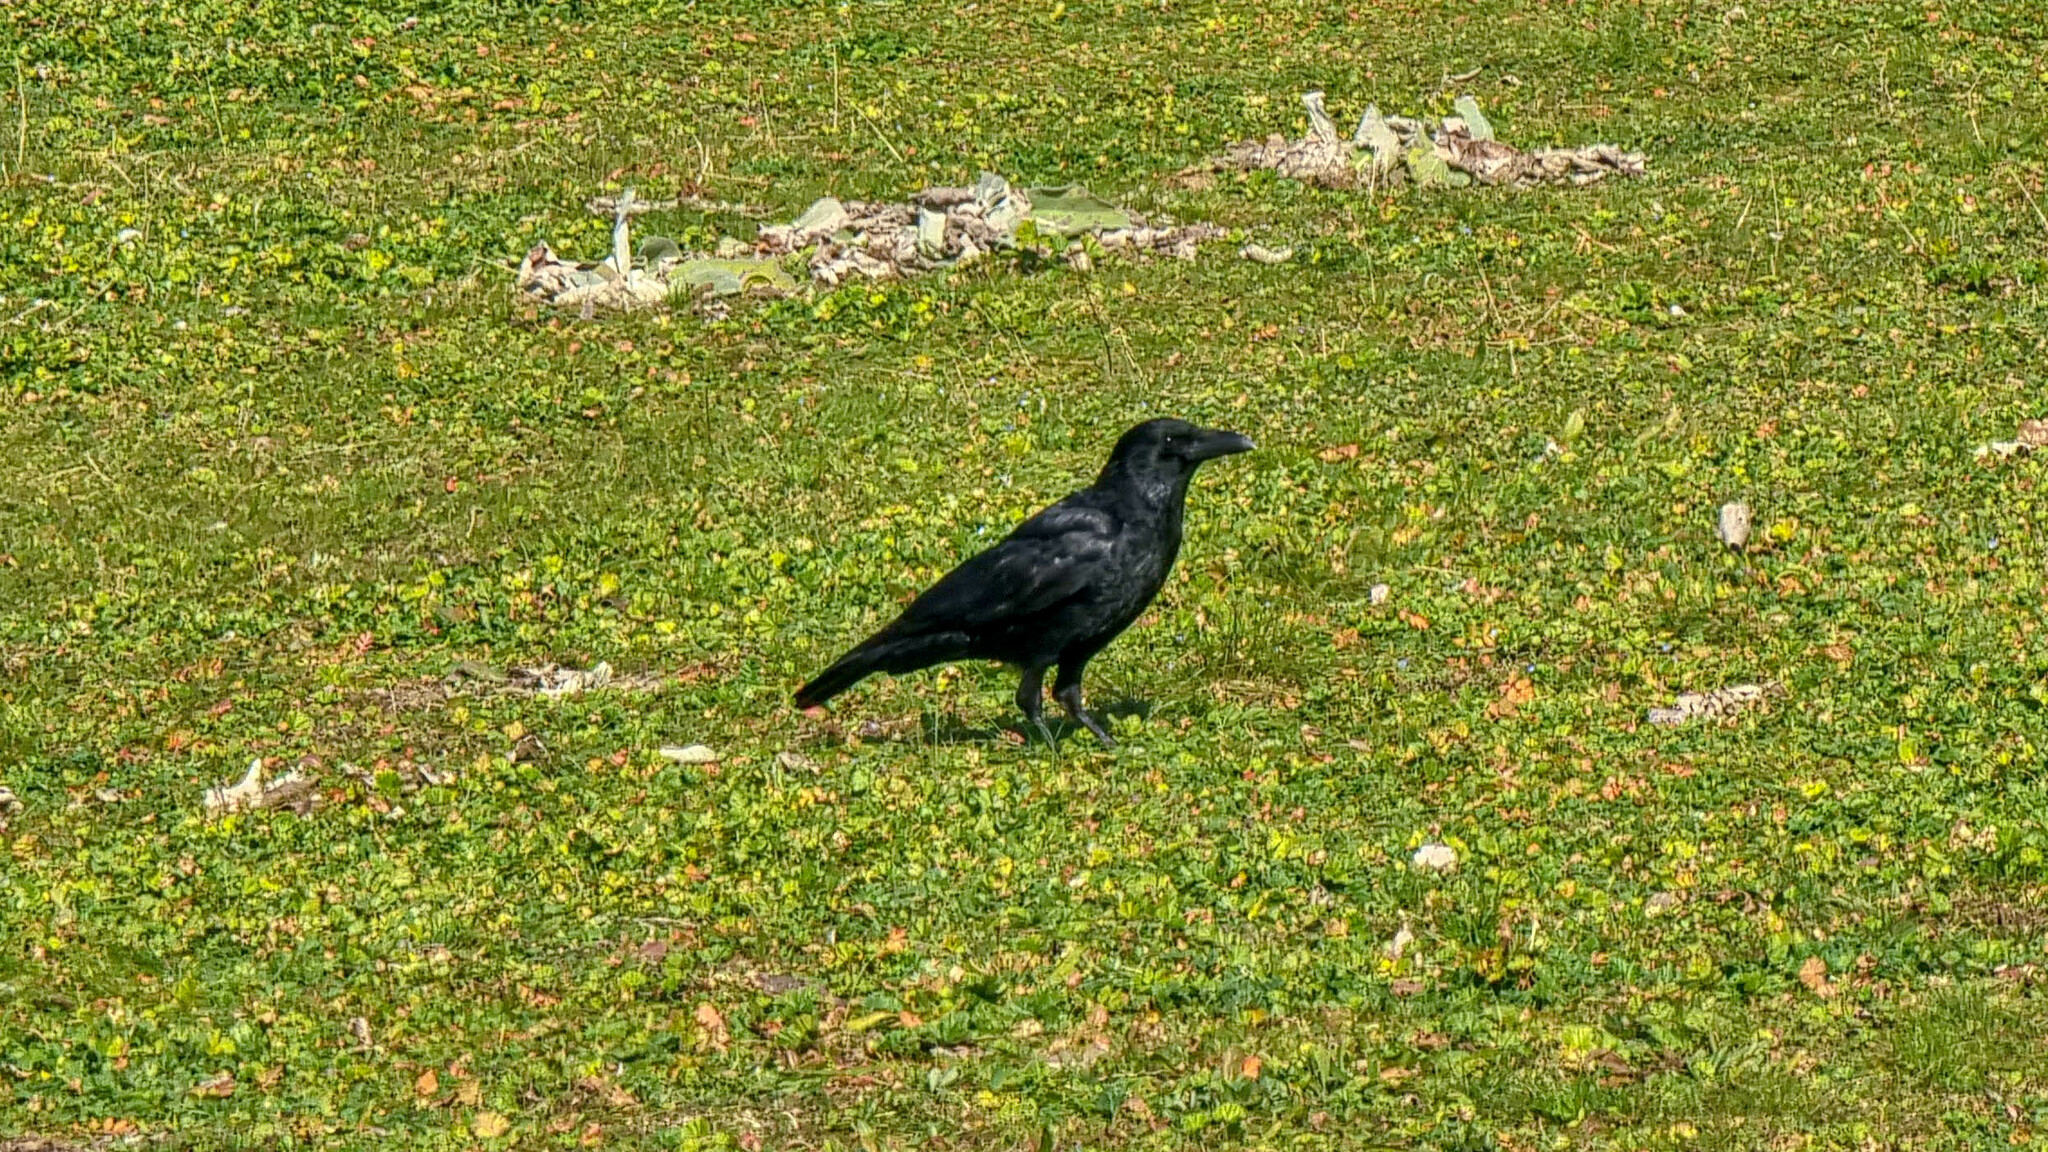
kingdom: Animalia
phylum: Chordata
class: Aves
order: Passeriformes
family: Corvidae
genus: Corvus
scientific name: Corvus corone
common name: Carrion crow
